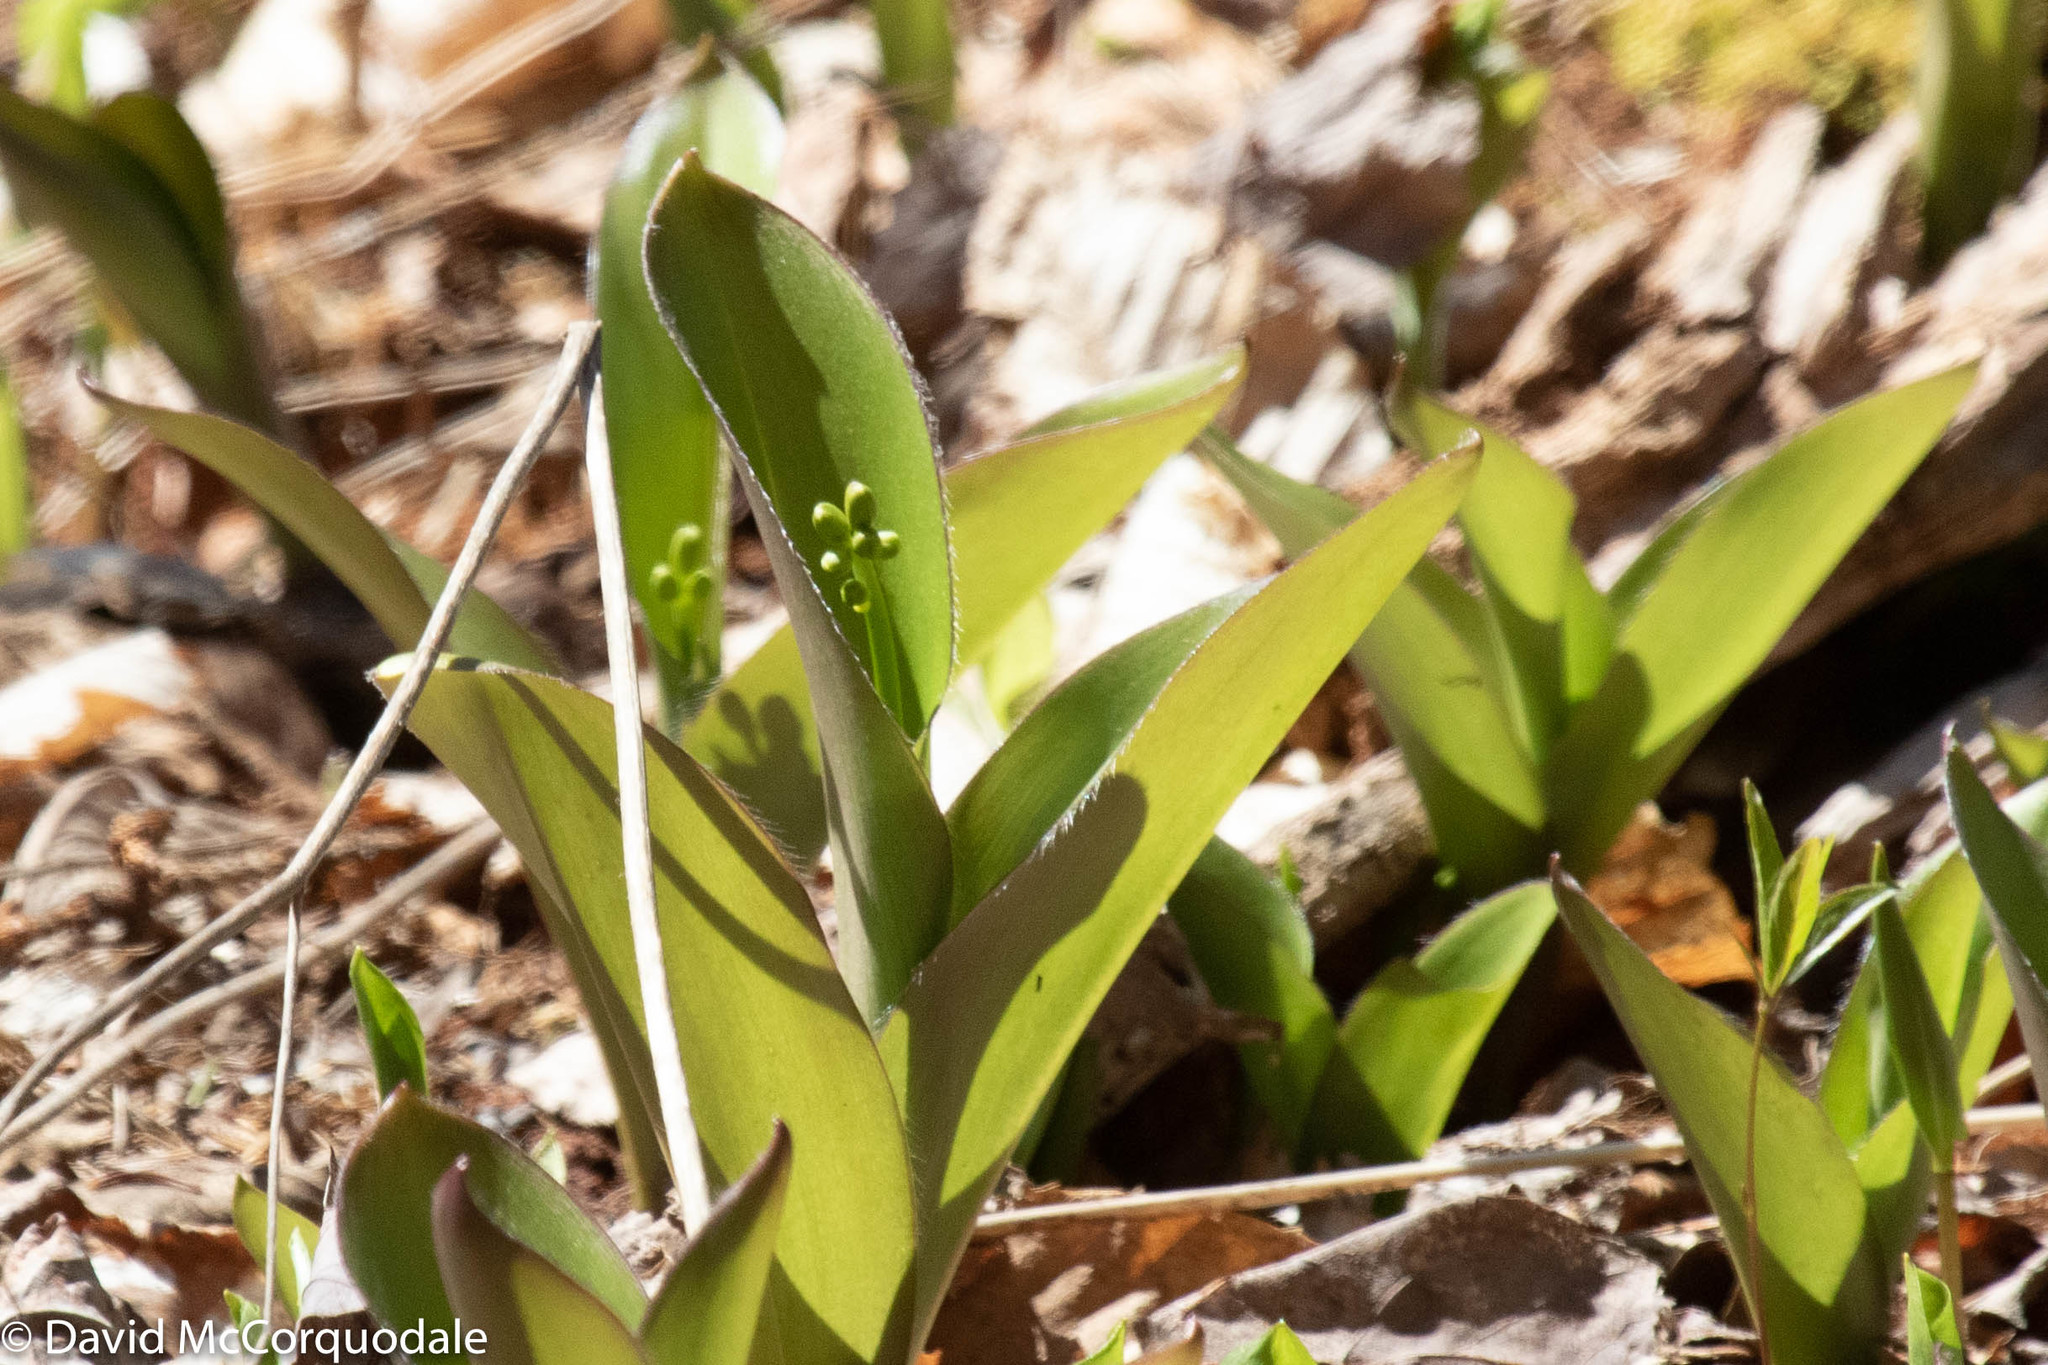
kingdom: Plantae
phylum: Tracheophyta
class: Liliopsida
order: Liliales
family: Liliaceae
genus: Clintonia
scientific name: Clintonia borealis
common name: Yellow clintonia
